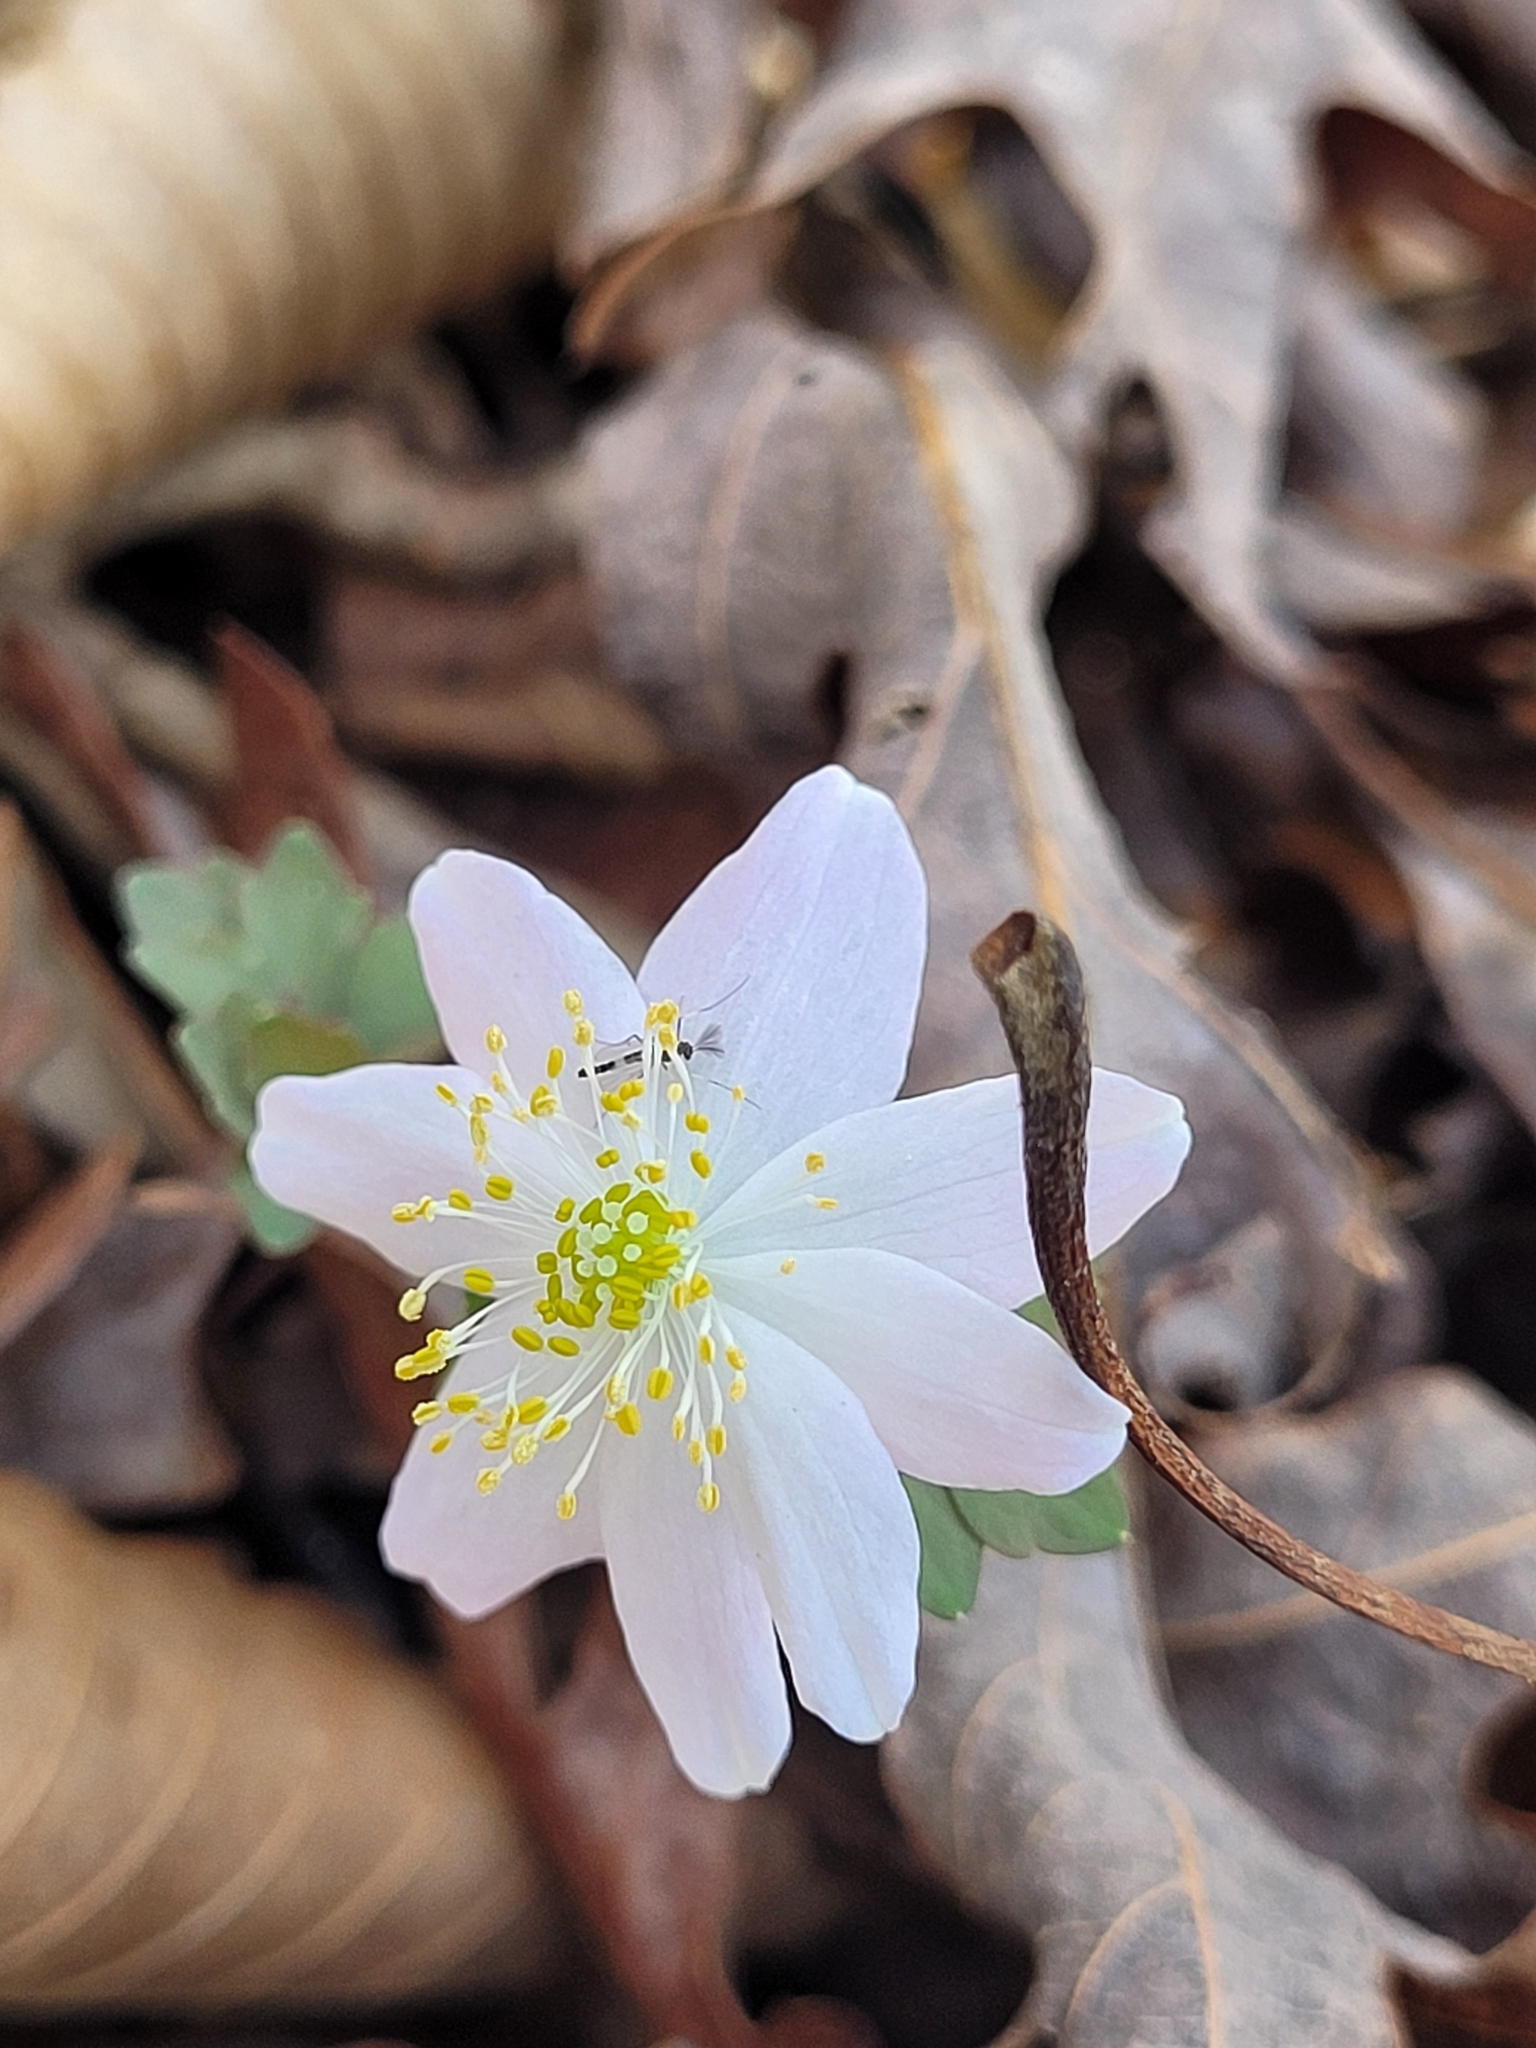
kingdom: Plantae
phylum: Tracheophyta
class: Magnoliopsida
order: Ranunculales
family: Ranunculaceae
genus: Thalictrum
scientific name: Thalictrum thalictroides
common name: Rue-anemone
